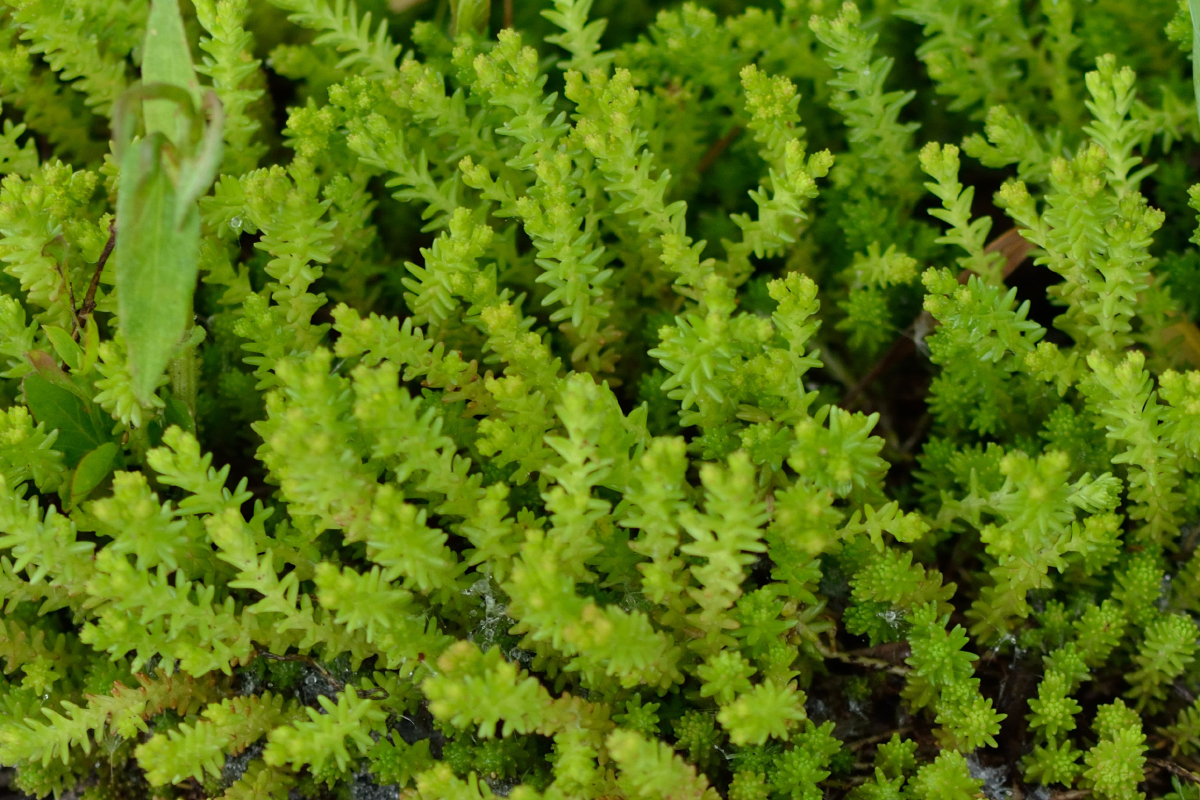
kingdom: Plantae
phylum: Tracheophyta
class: Magnoliopsida
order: Saxifragales
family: Crassulaceae
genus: Sedum
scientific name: Sedum sexangulare
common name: Tasteless stonecrop
